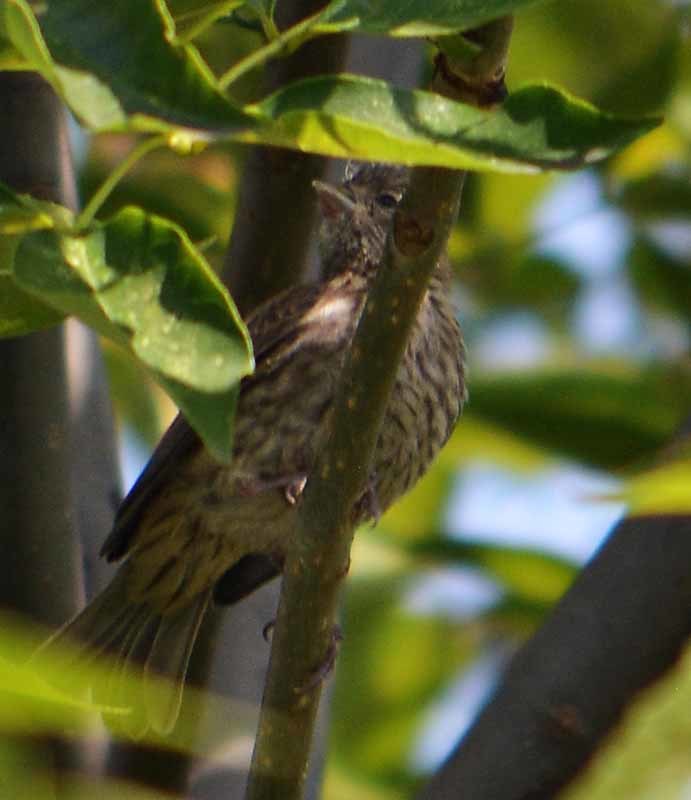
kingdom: Animalia
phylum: Chordata
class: Aves
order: Passeriformes
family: Fringillidae
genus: Haemorhous
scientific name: Haemorhous mexicanus
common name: House finch
